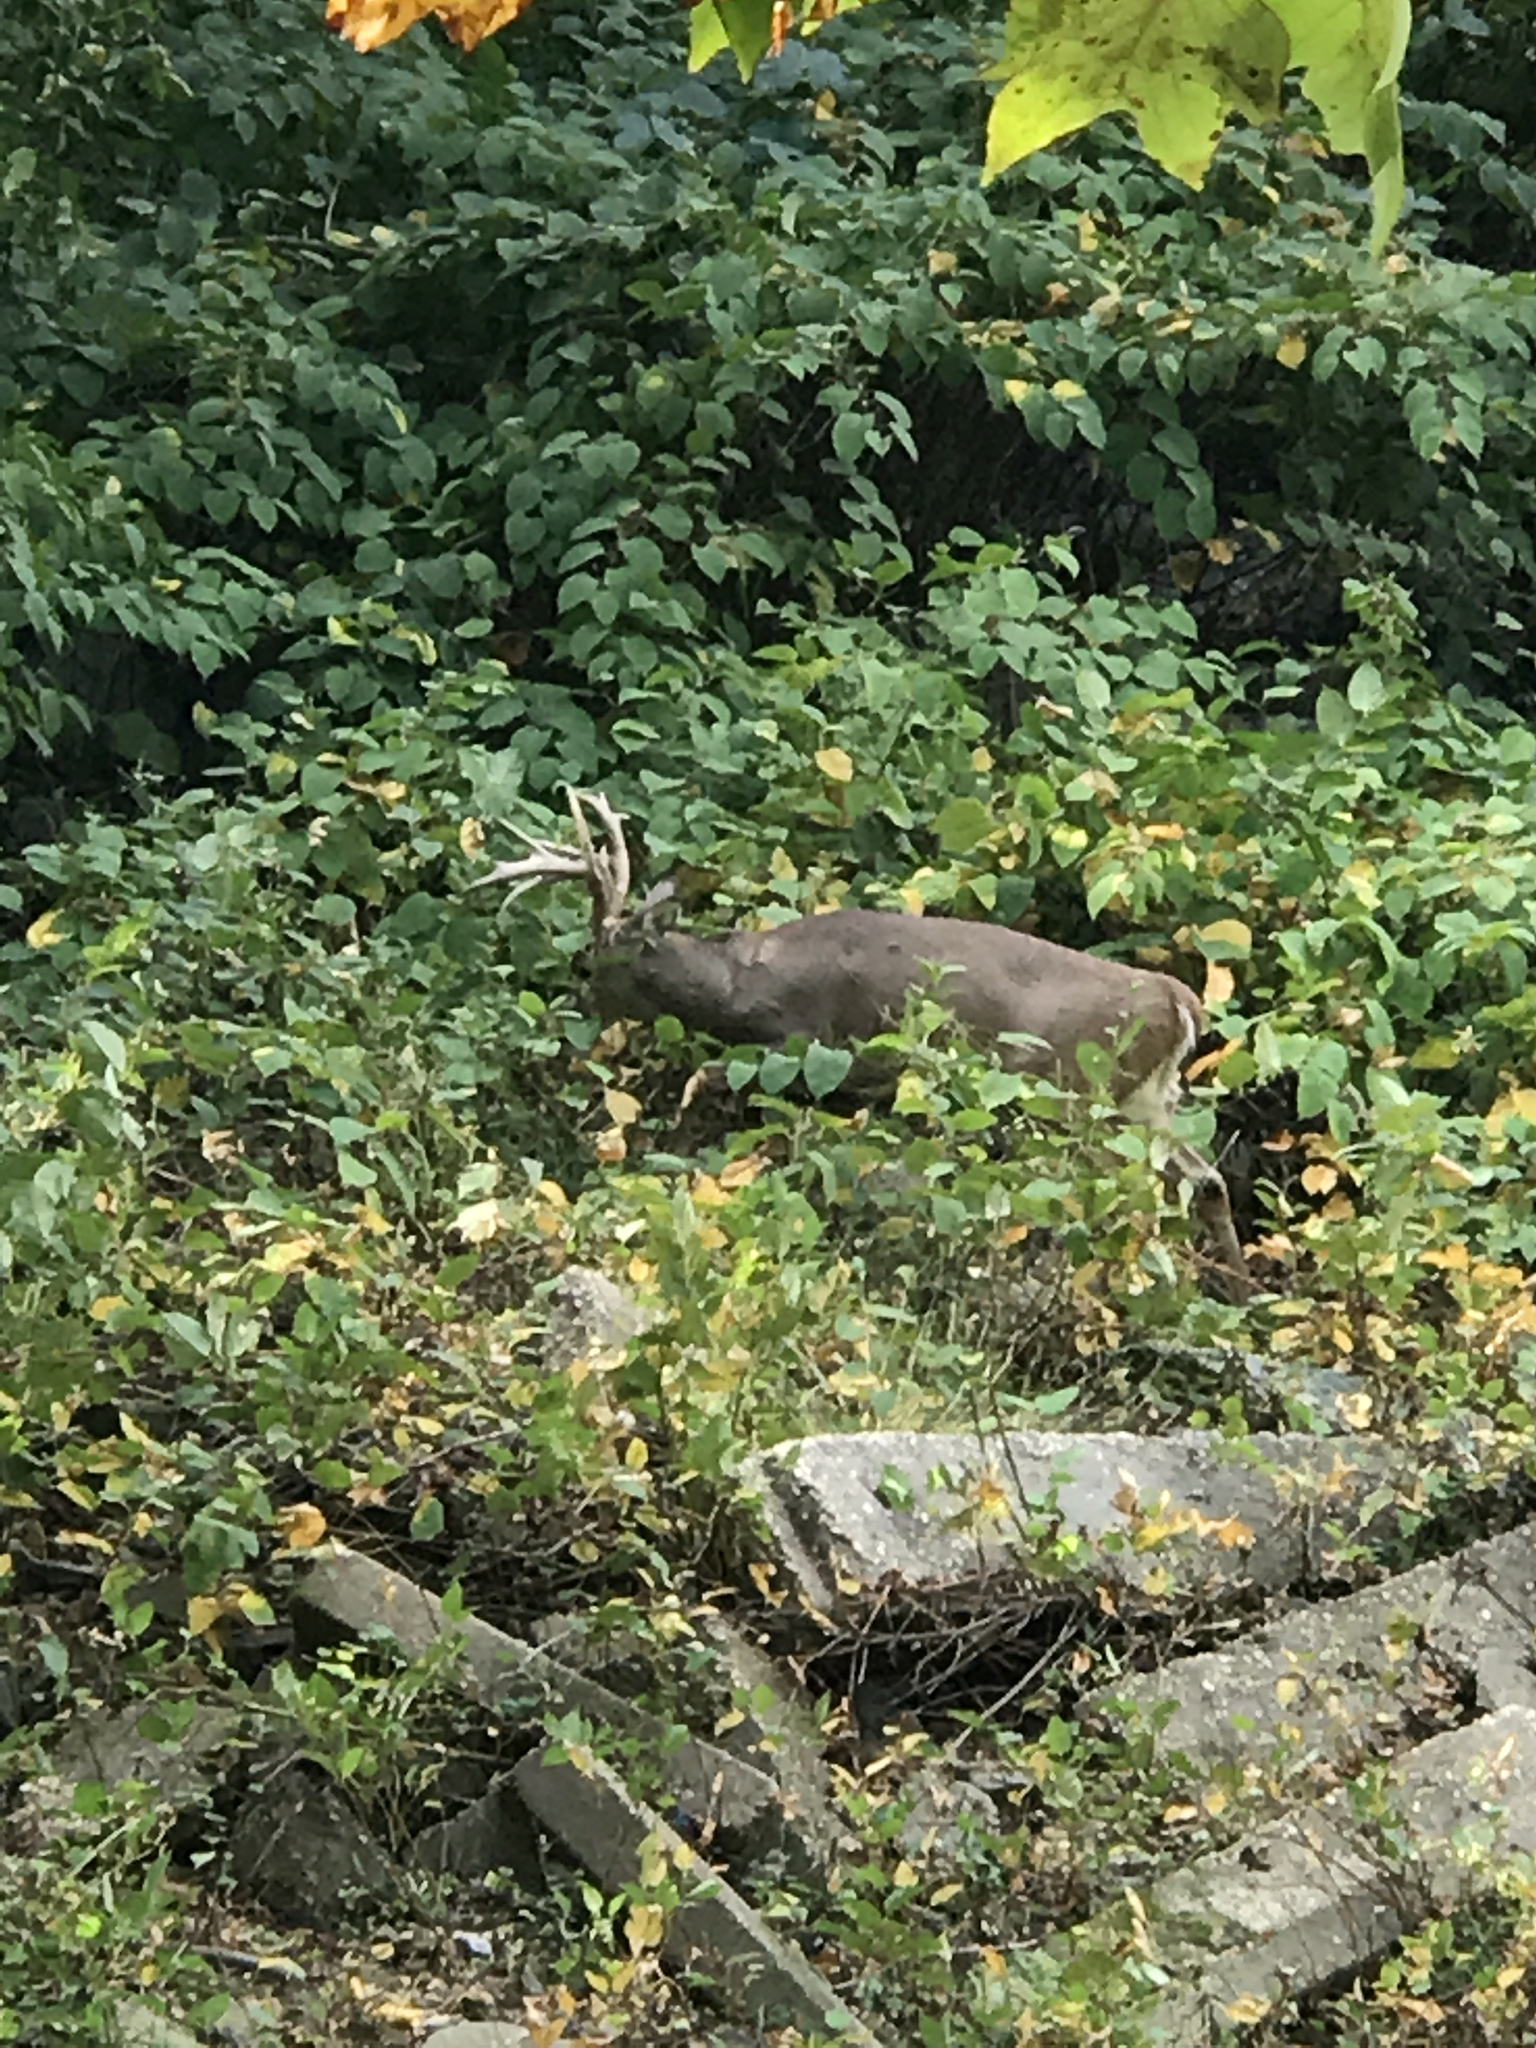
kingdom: Animalia
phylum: Chordata
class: Mammalia
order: Artiodactyla
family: Cervidae
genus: Odocoileus
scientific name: Odocoileus virginianus
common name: White-tailed deer
